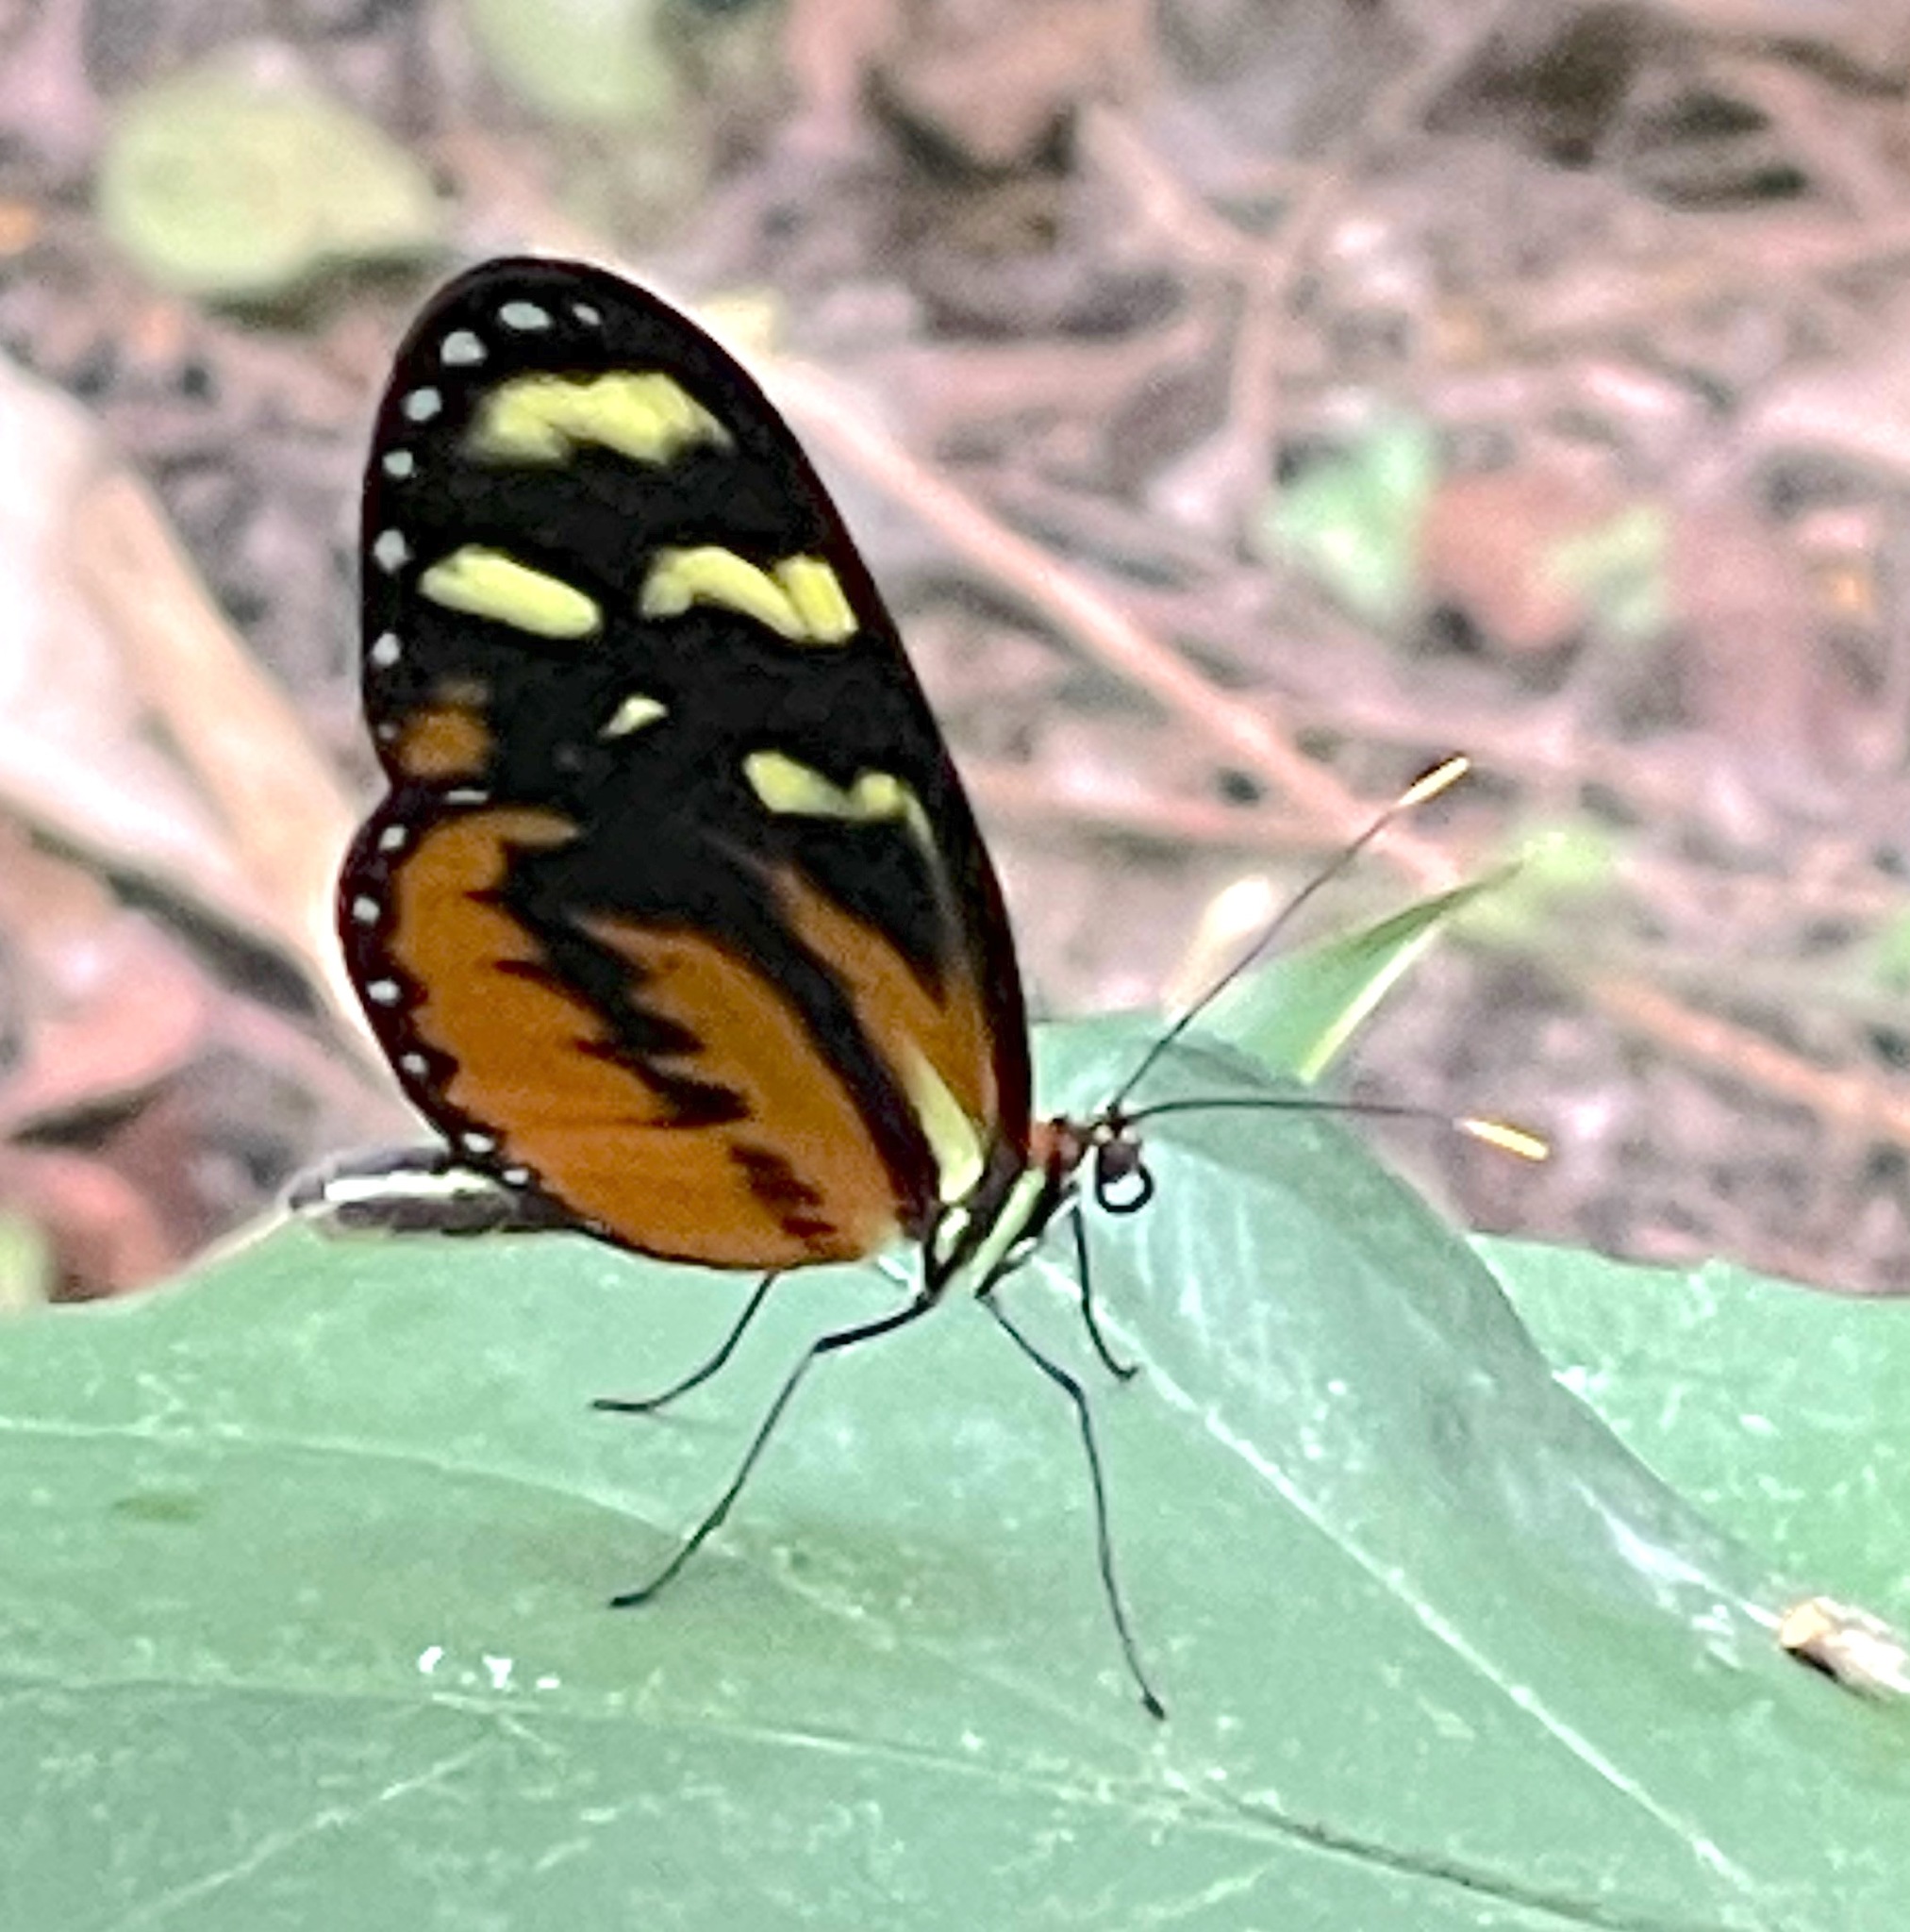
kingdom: Animalia
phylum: Arthropoda
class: Insecta
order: Lepidoptera
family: Nymphalidae
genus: Mechanitis
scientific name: Mechanitis polymnia
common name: Disturbed tigerwing
